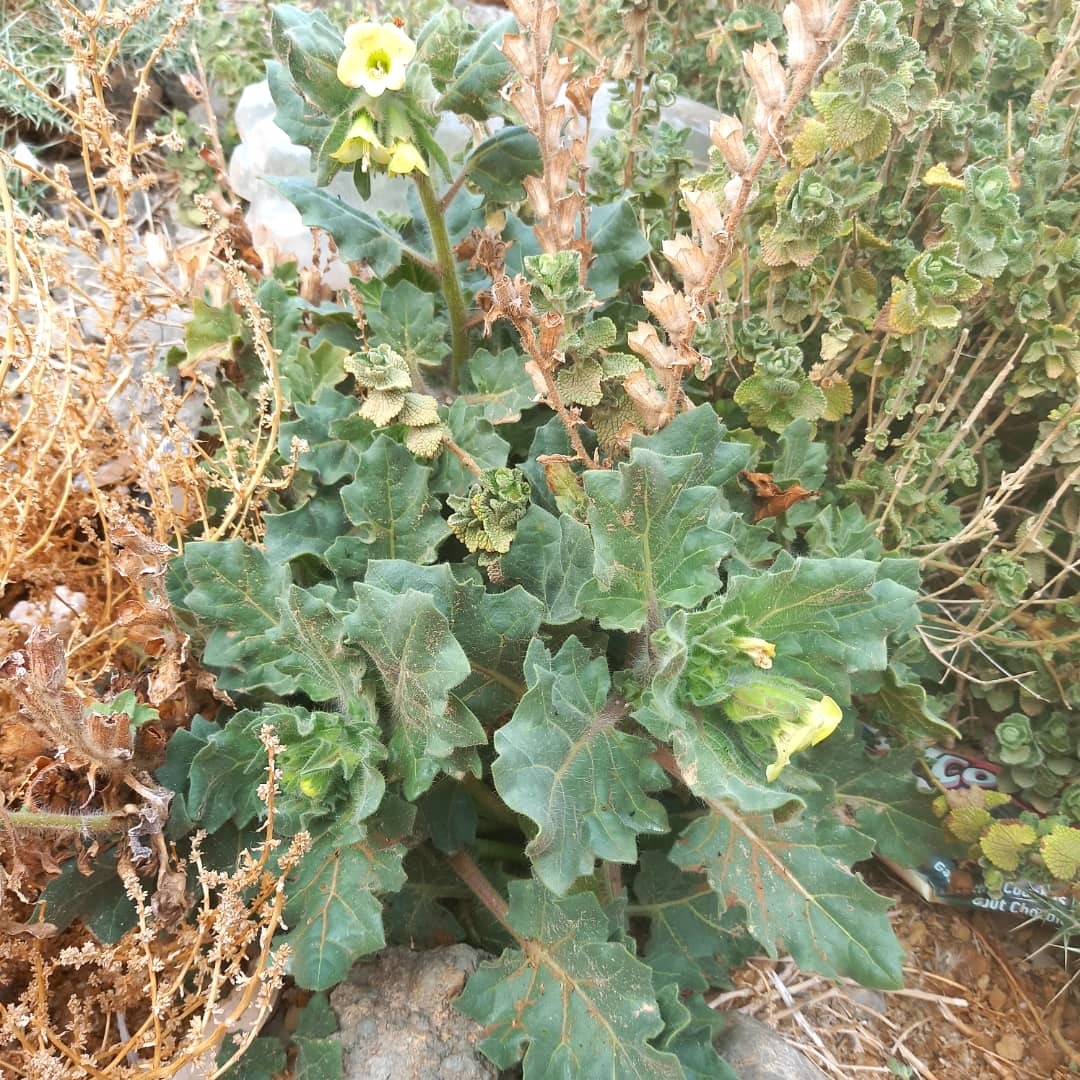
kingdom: Plantae
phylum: Tracheophyta
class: Magnoliopsida
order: Solanales
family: Solanaceae
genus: Hyoscyamus
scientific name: Hyoscyamus albus
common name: White henbane
